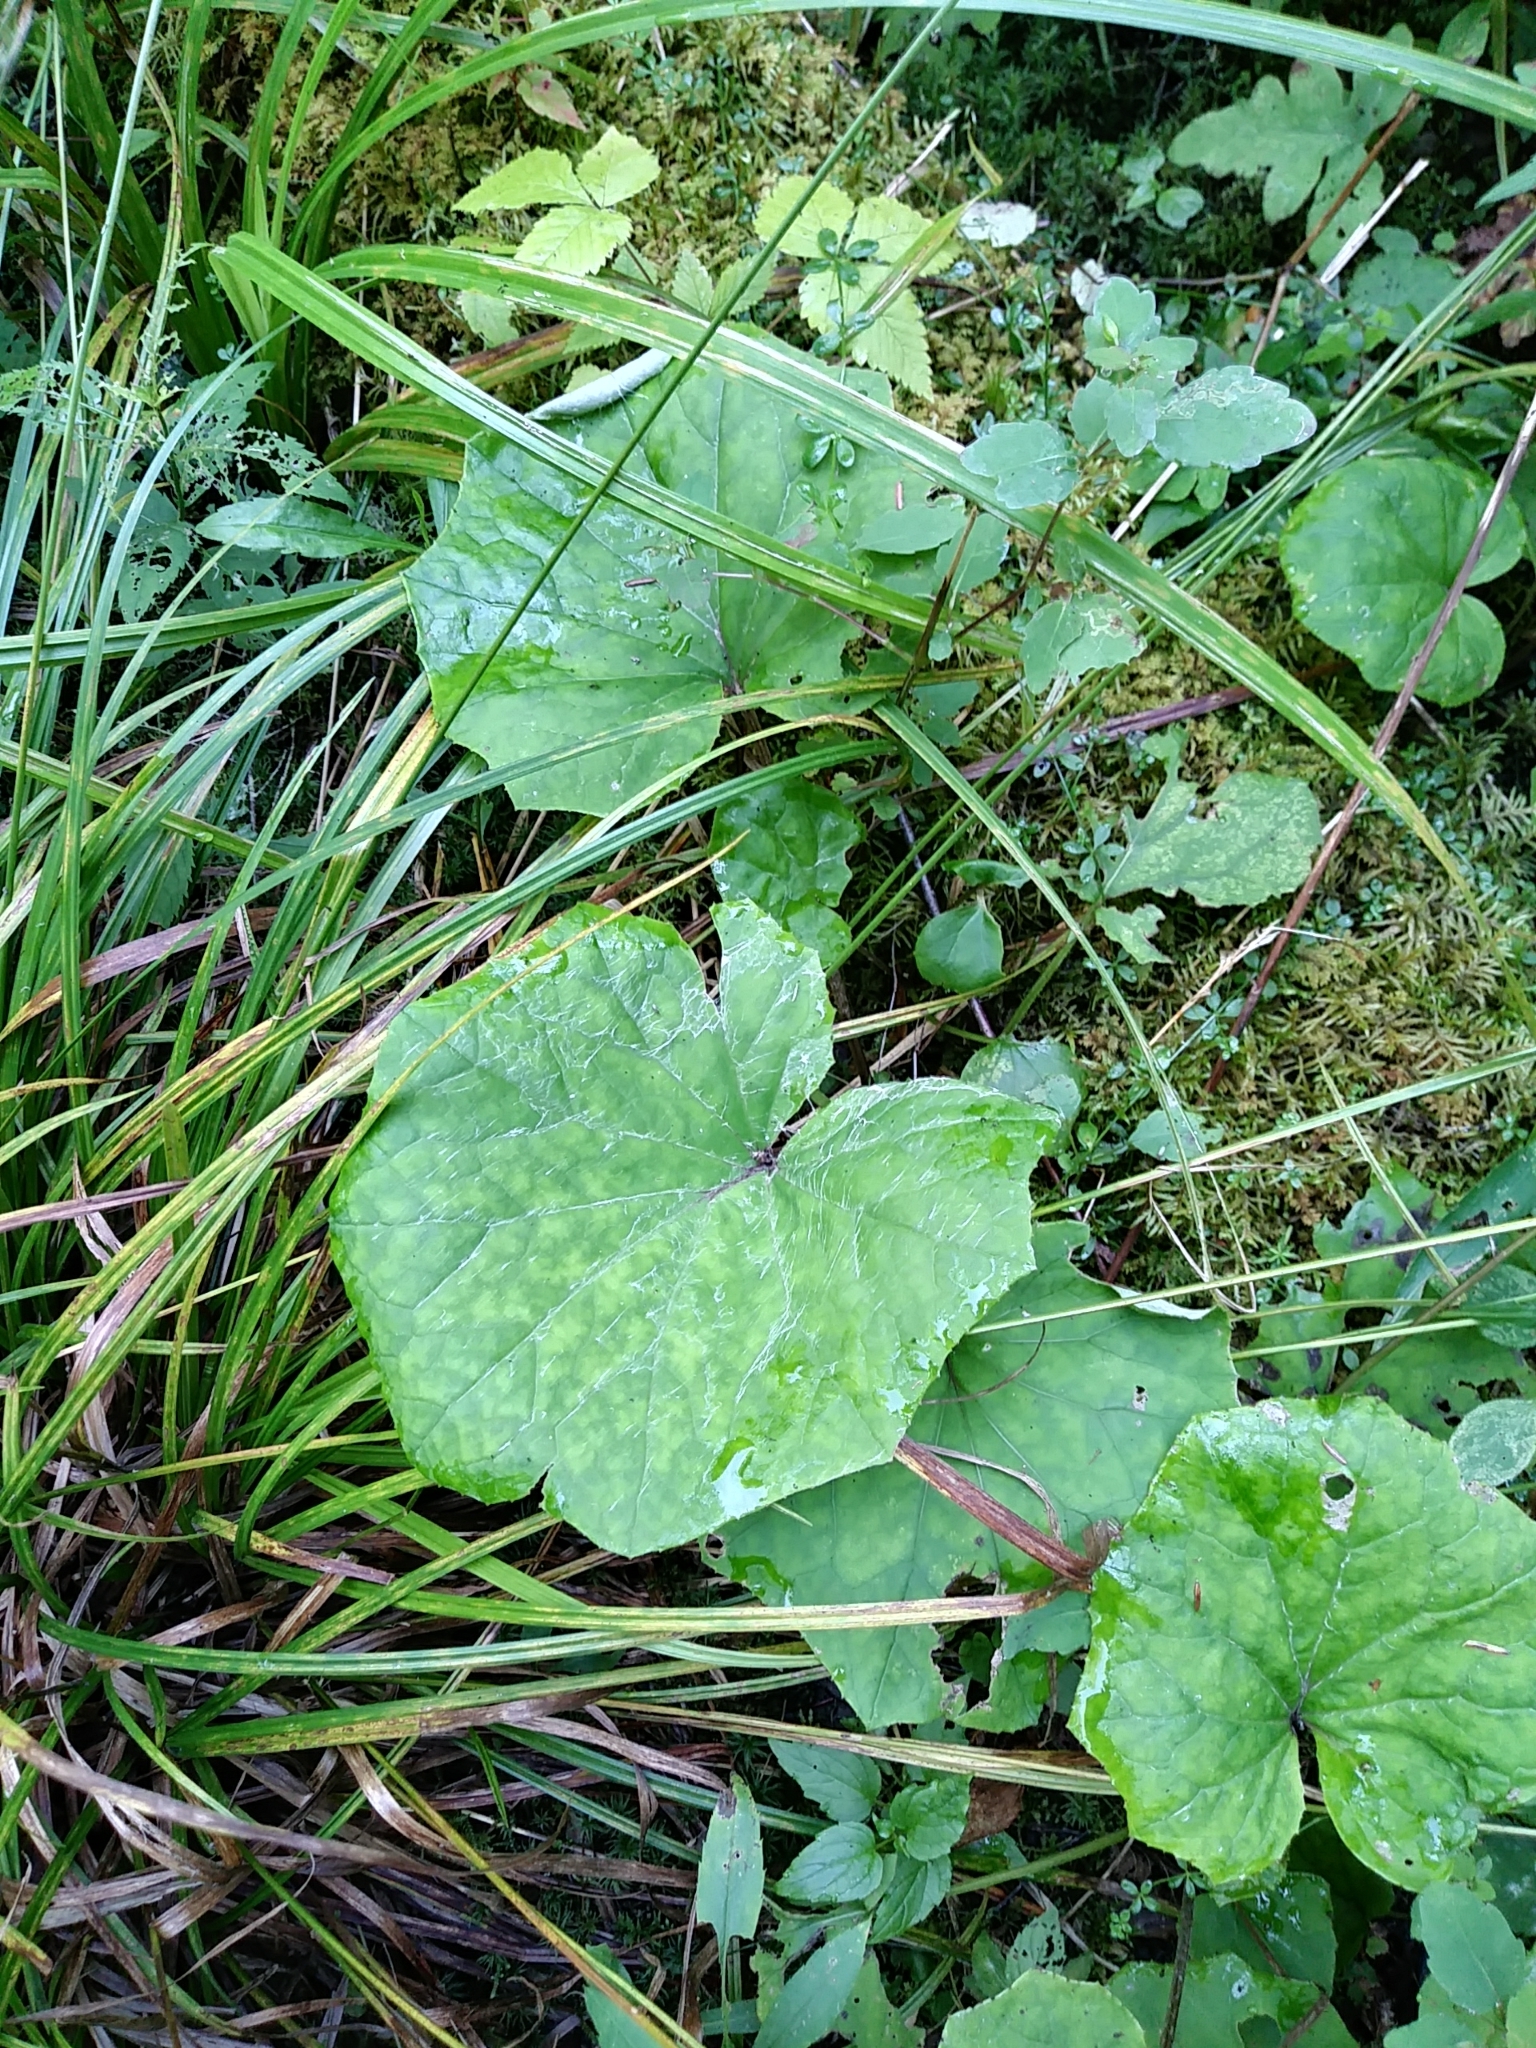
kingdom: Plantae
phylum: Tracheophyta
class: Magnoliopsida
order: Asterales
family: Asteraceae
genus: Tussilago
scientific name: Tussilago farfara
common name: Coltsfoot
